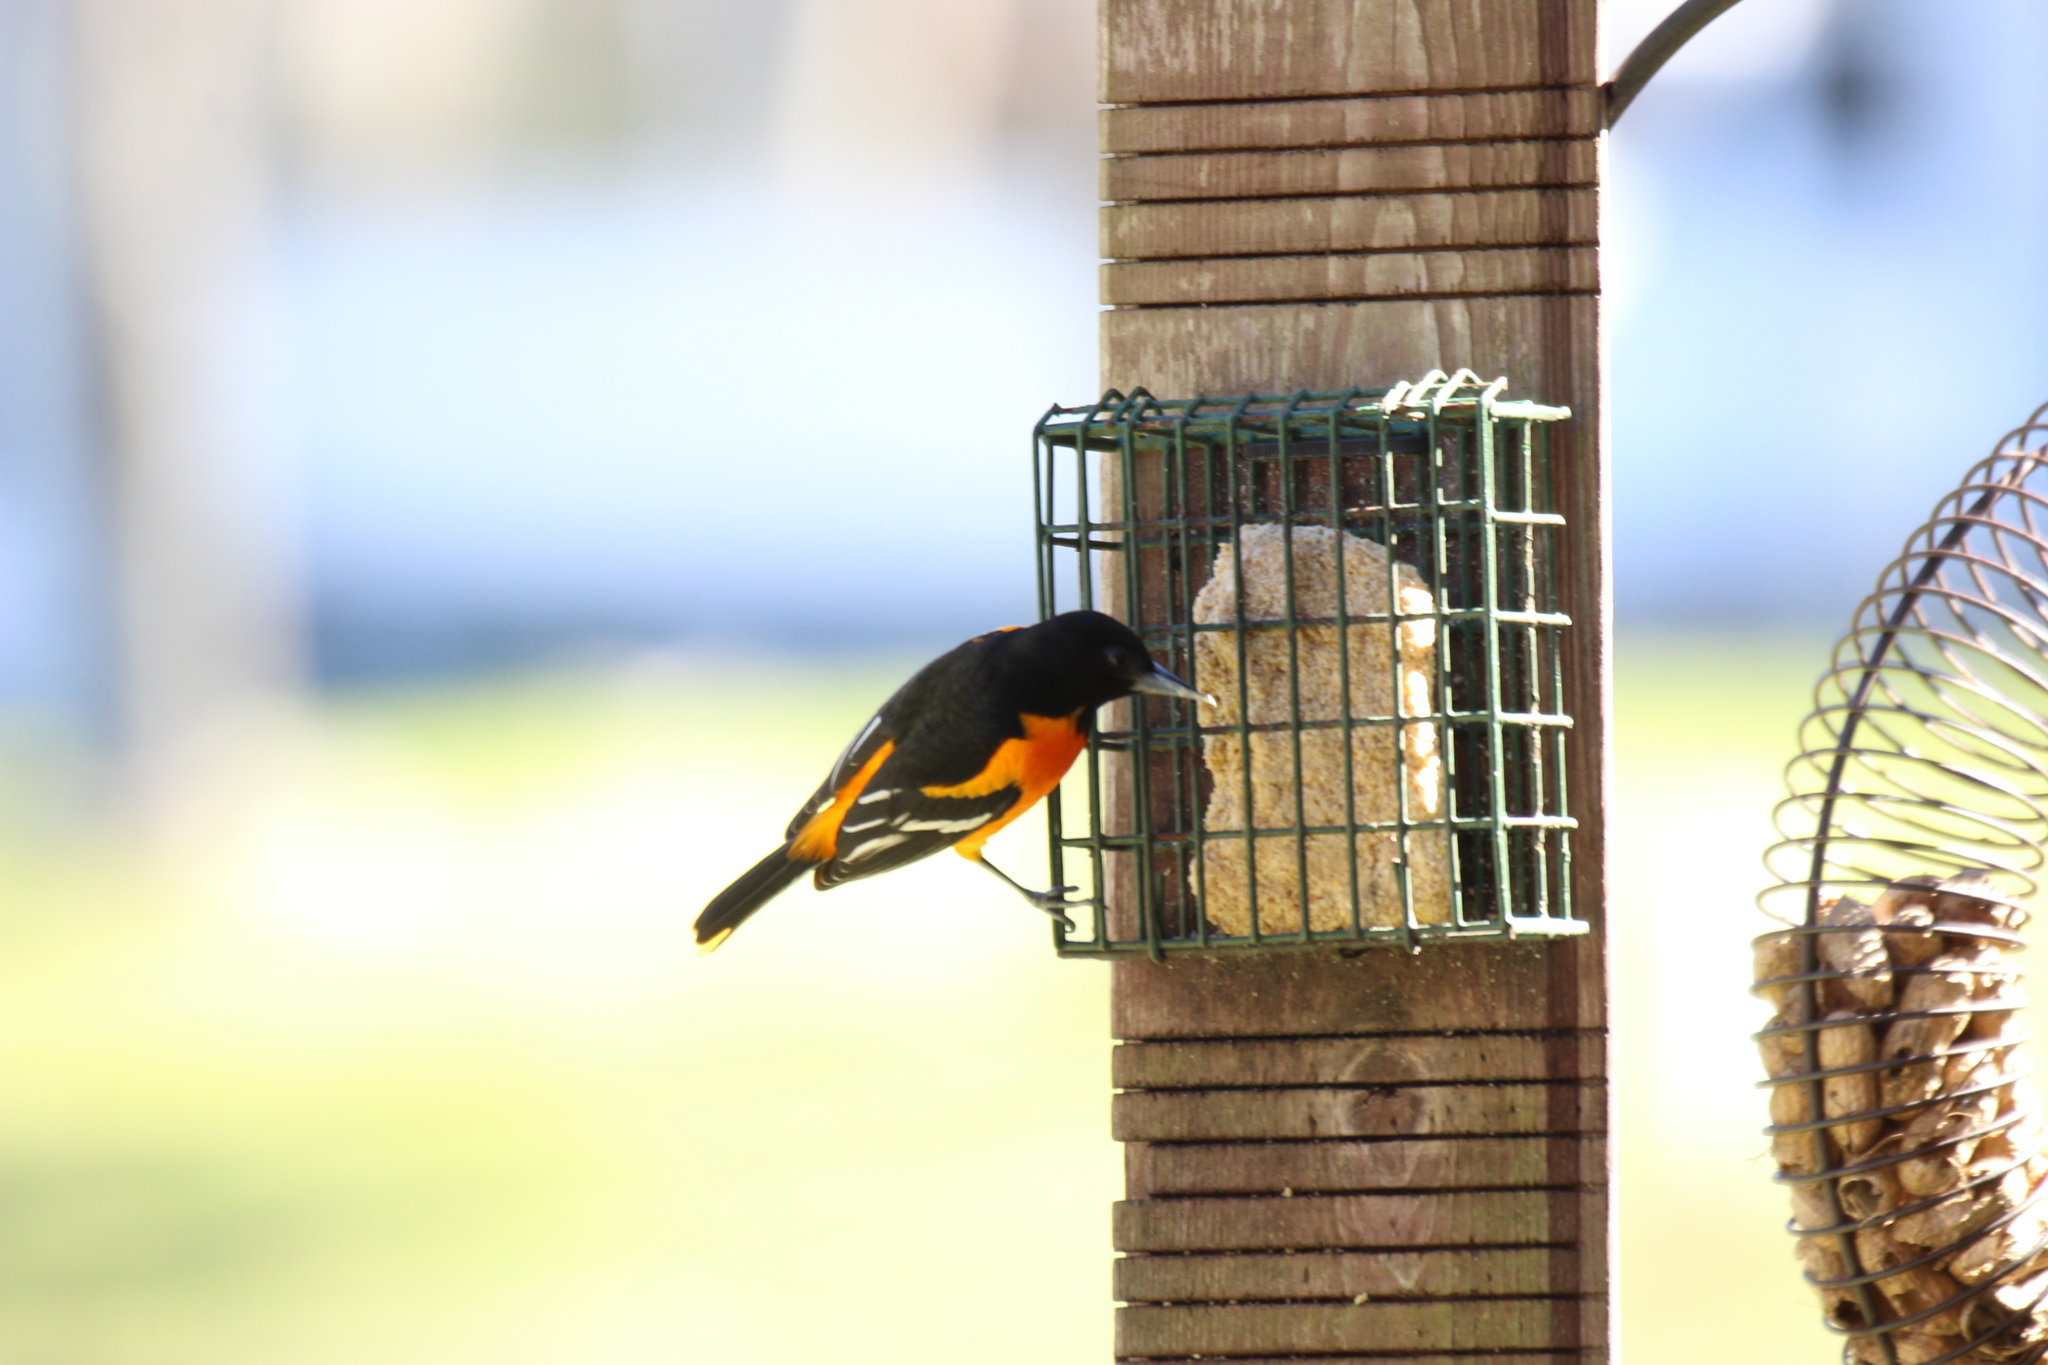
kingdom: Animalia
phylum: Chordata
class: Aves
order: Passeriformes
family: Icteridae
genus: Icterus
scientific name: Icterus galbula
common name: Baltimore oriole
